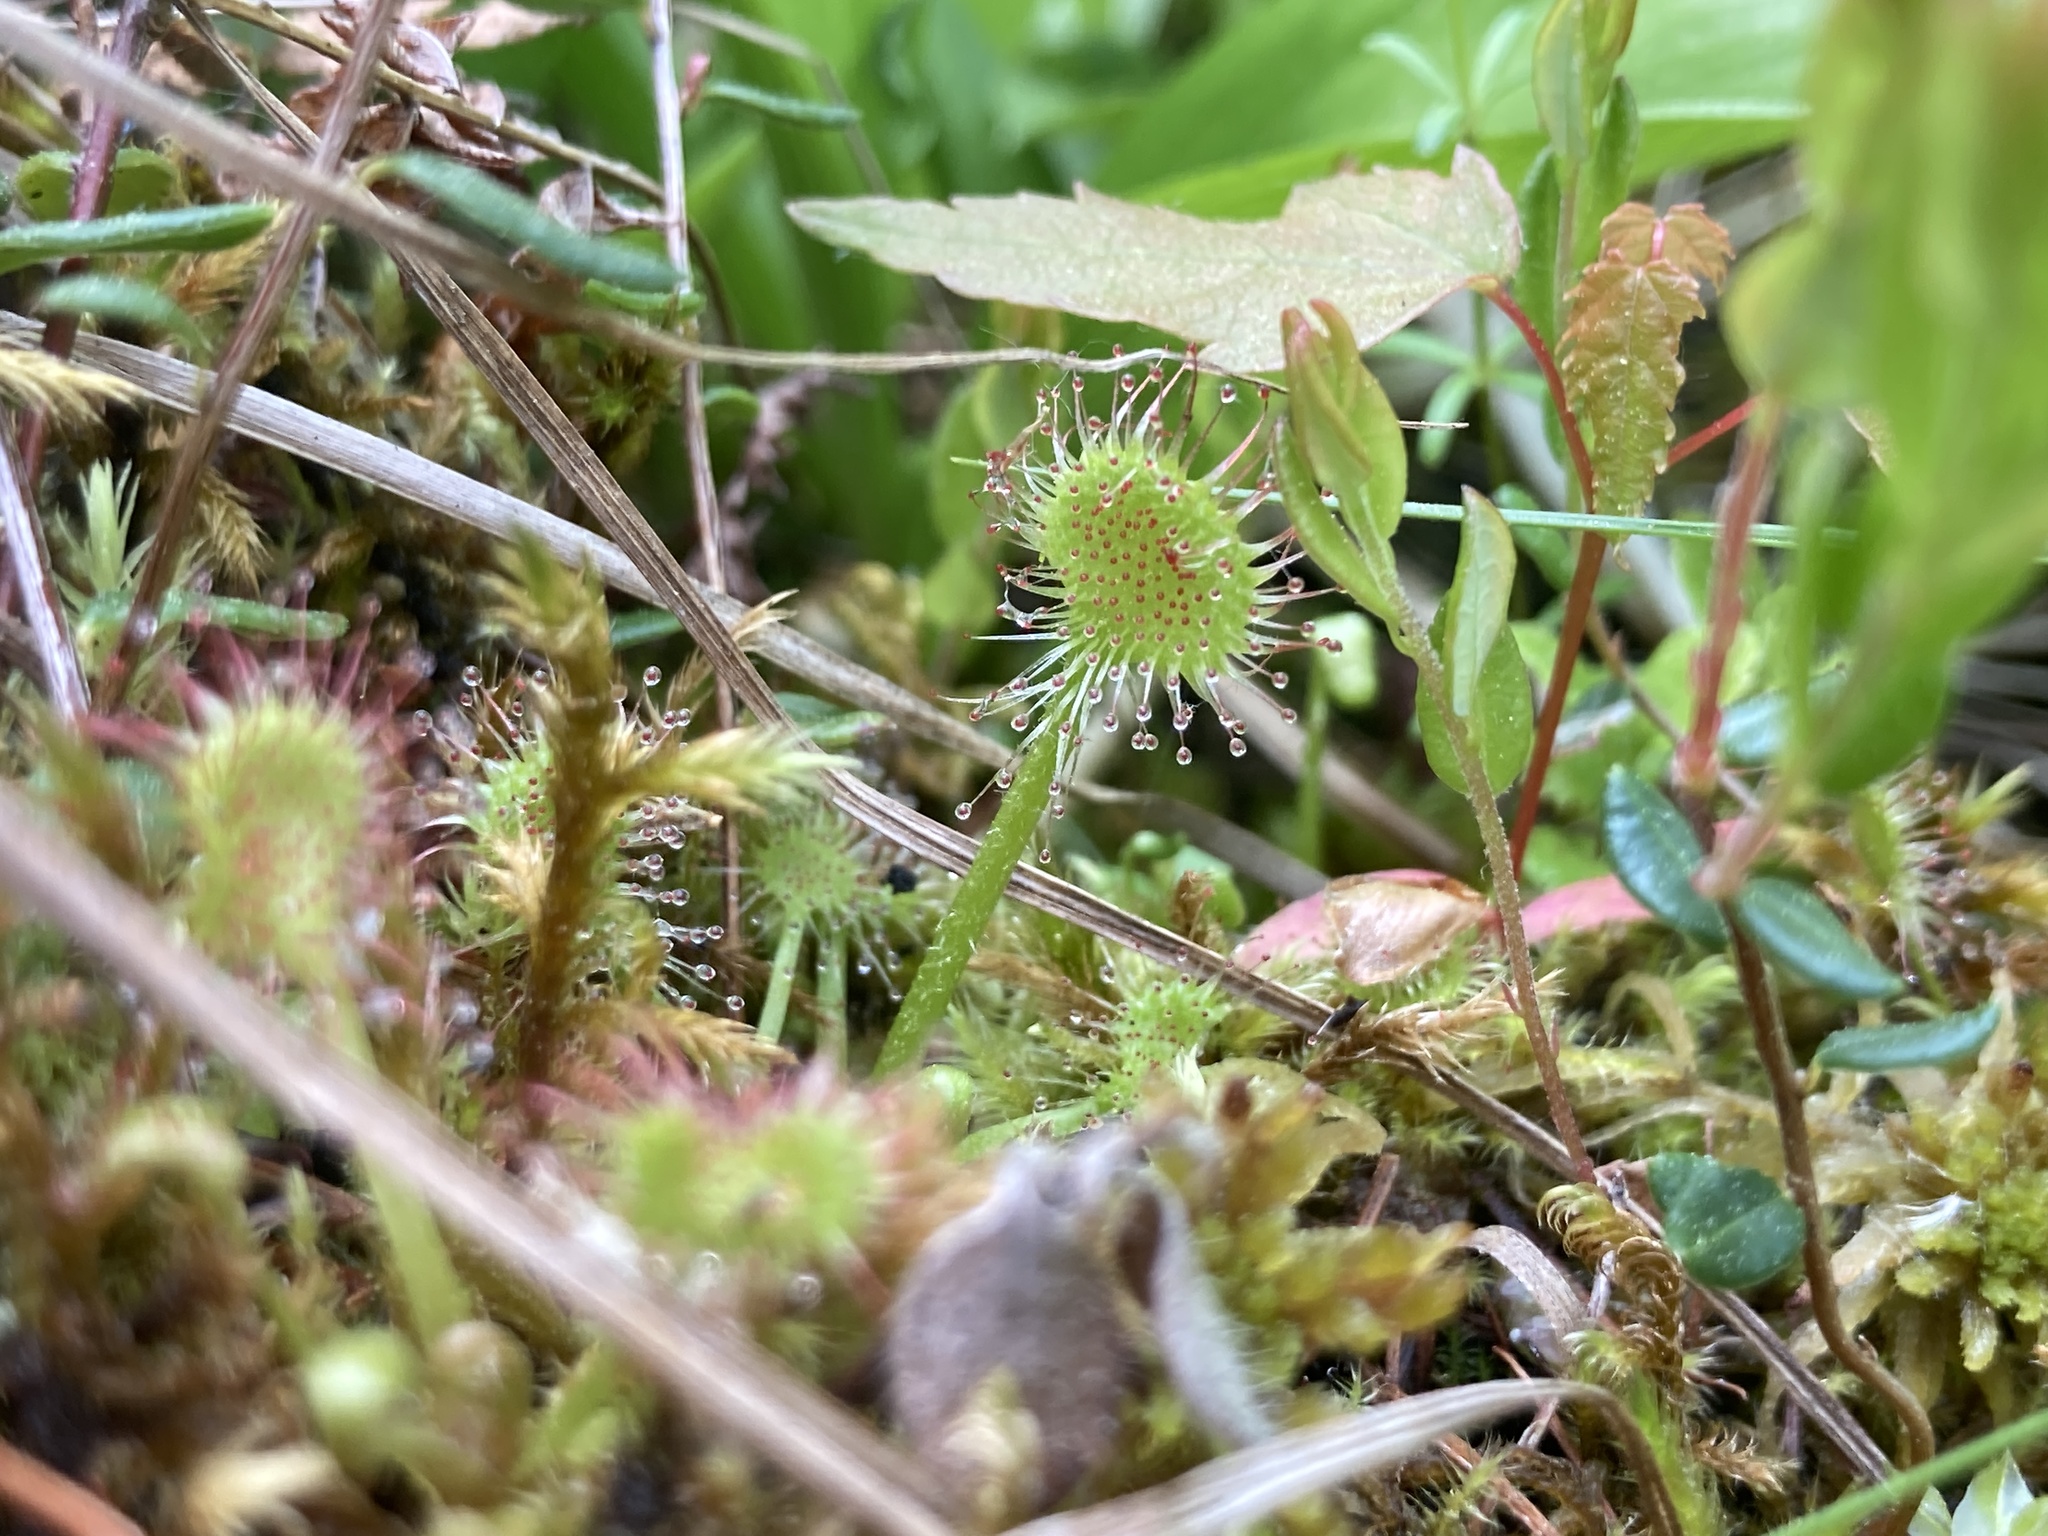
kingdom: Plantae
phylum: Tracheophyta
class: Magnoliopsida
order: Caryophyllales
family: Droseraceae
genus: Drosera
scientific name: Drosera rotundifolia
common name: Round-leaved sundew
